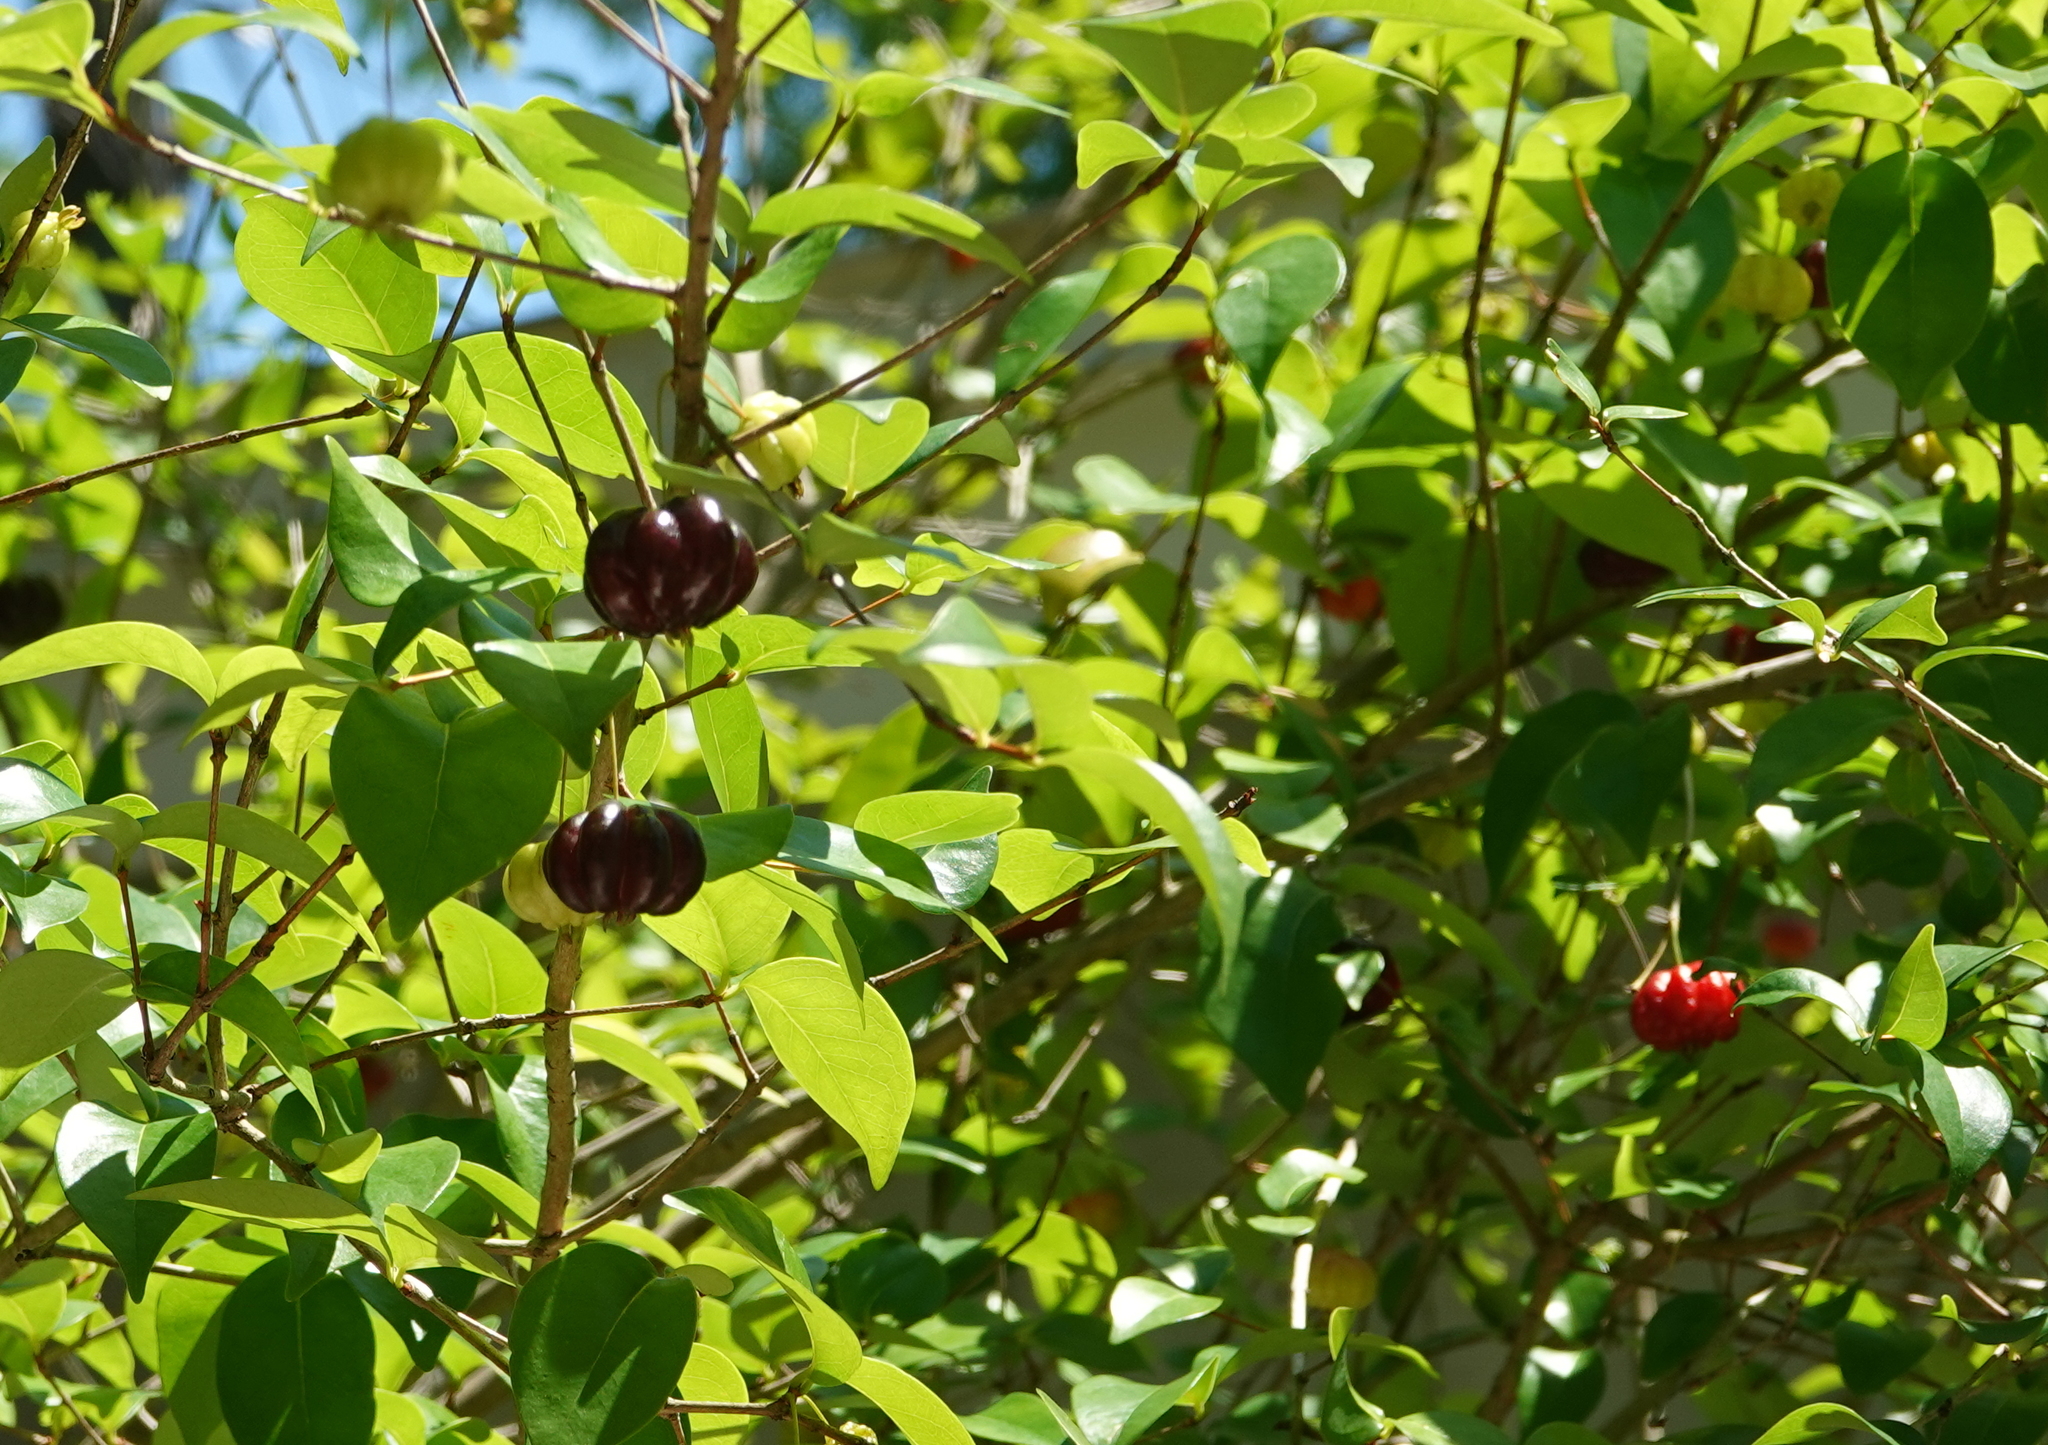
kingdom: Plantae
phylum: Tracheophyta
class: Magnoliopsida
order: Myrtales
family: Myrtaceae
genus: Eugenia
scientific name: Eugenia uniflora
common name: Surinam cherry
